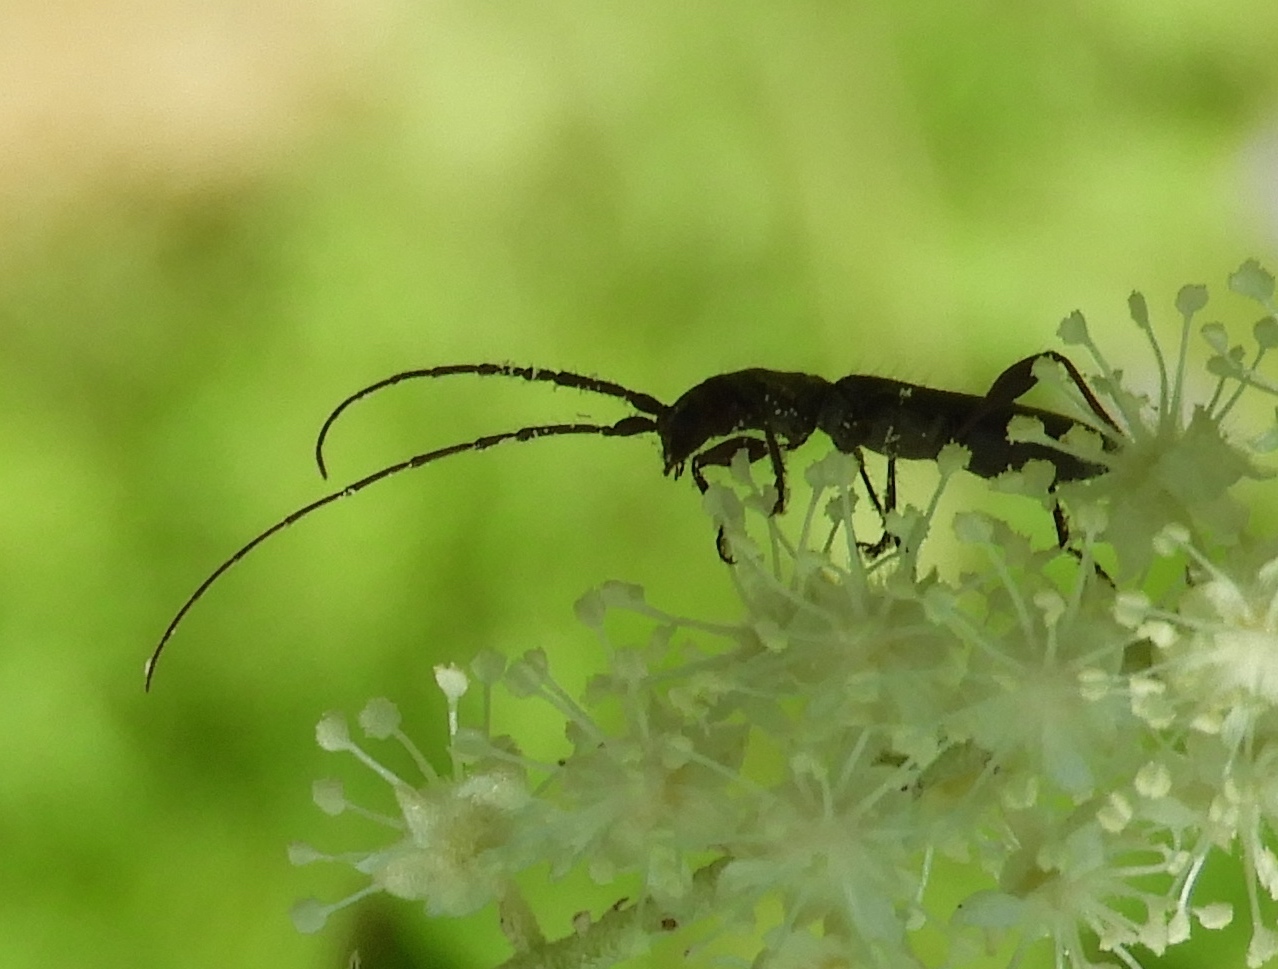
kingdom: Animalia
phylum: Arthropoda
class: Insecta
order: Coleoptera
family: Cerambycidae
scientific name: Cerambycidae
